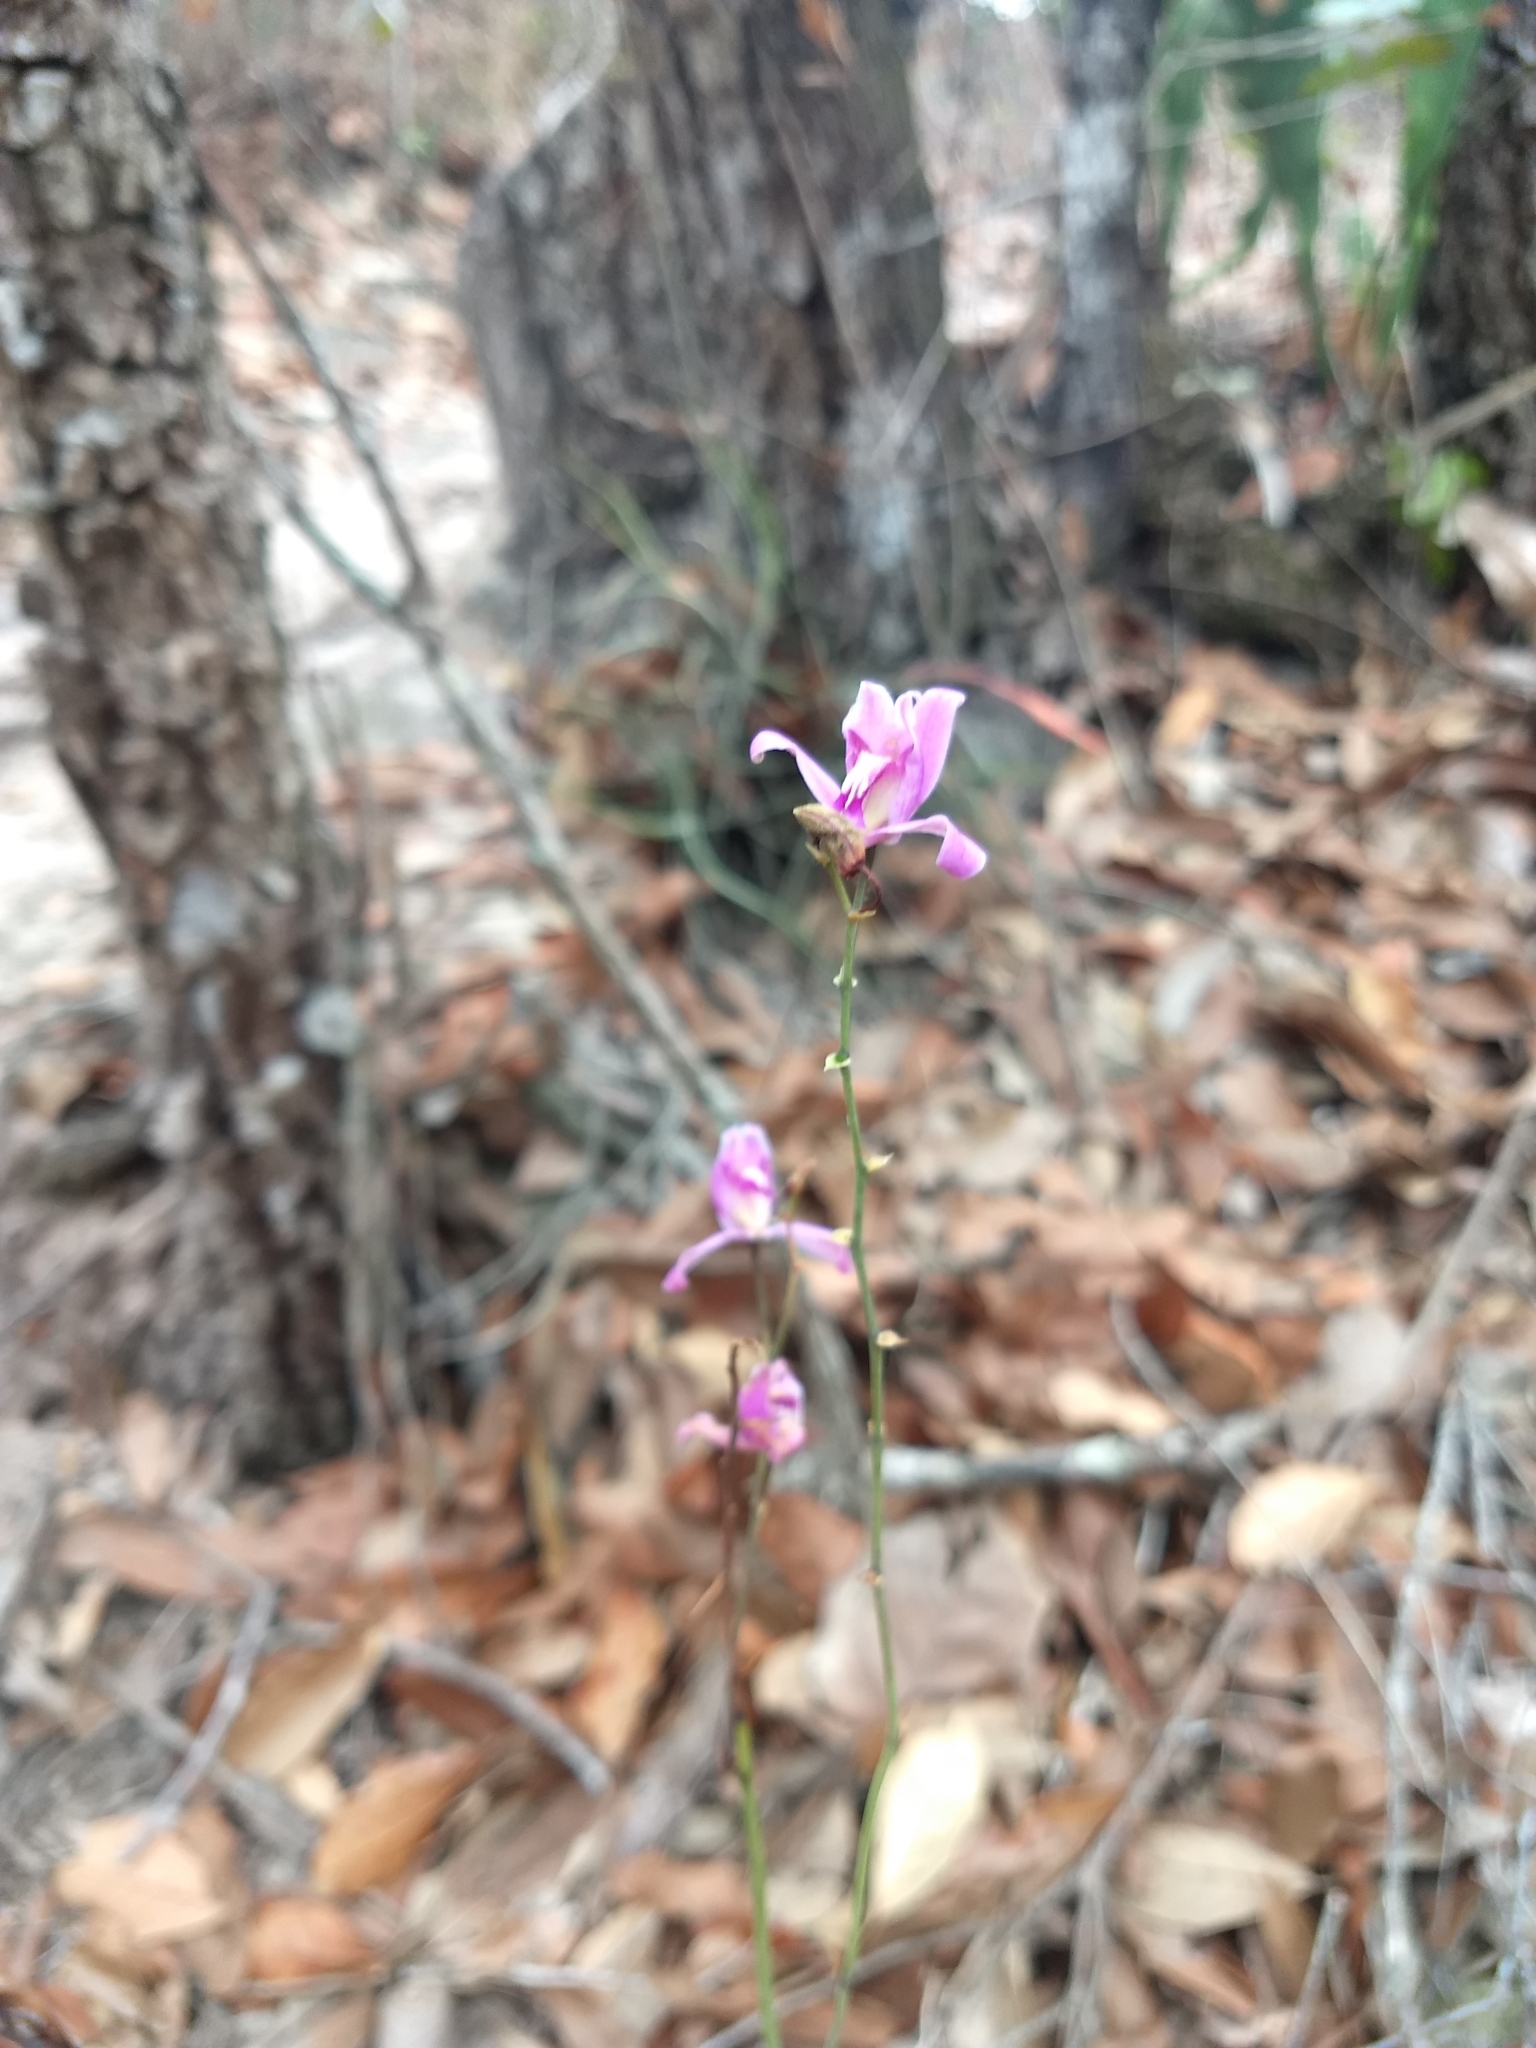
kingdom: Plantae
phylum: Tracheophyta
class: Liliopsida
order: Asparagales
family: Orchidaceae
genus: Bletia
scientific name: Bletia purpurea
